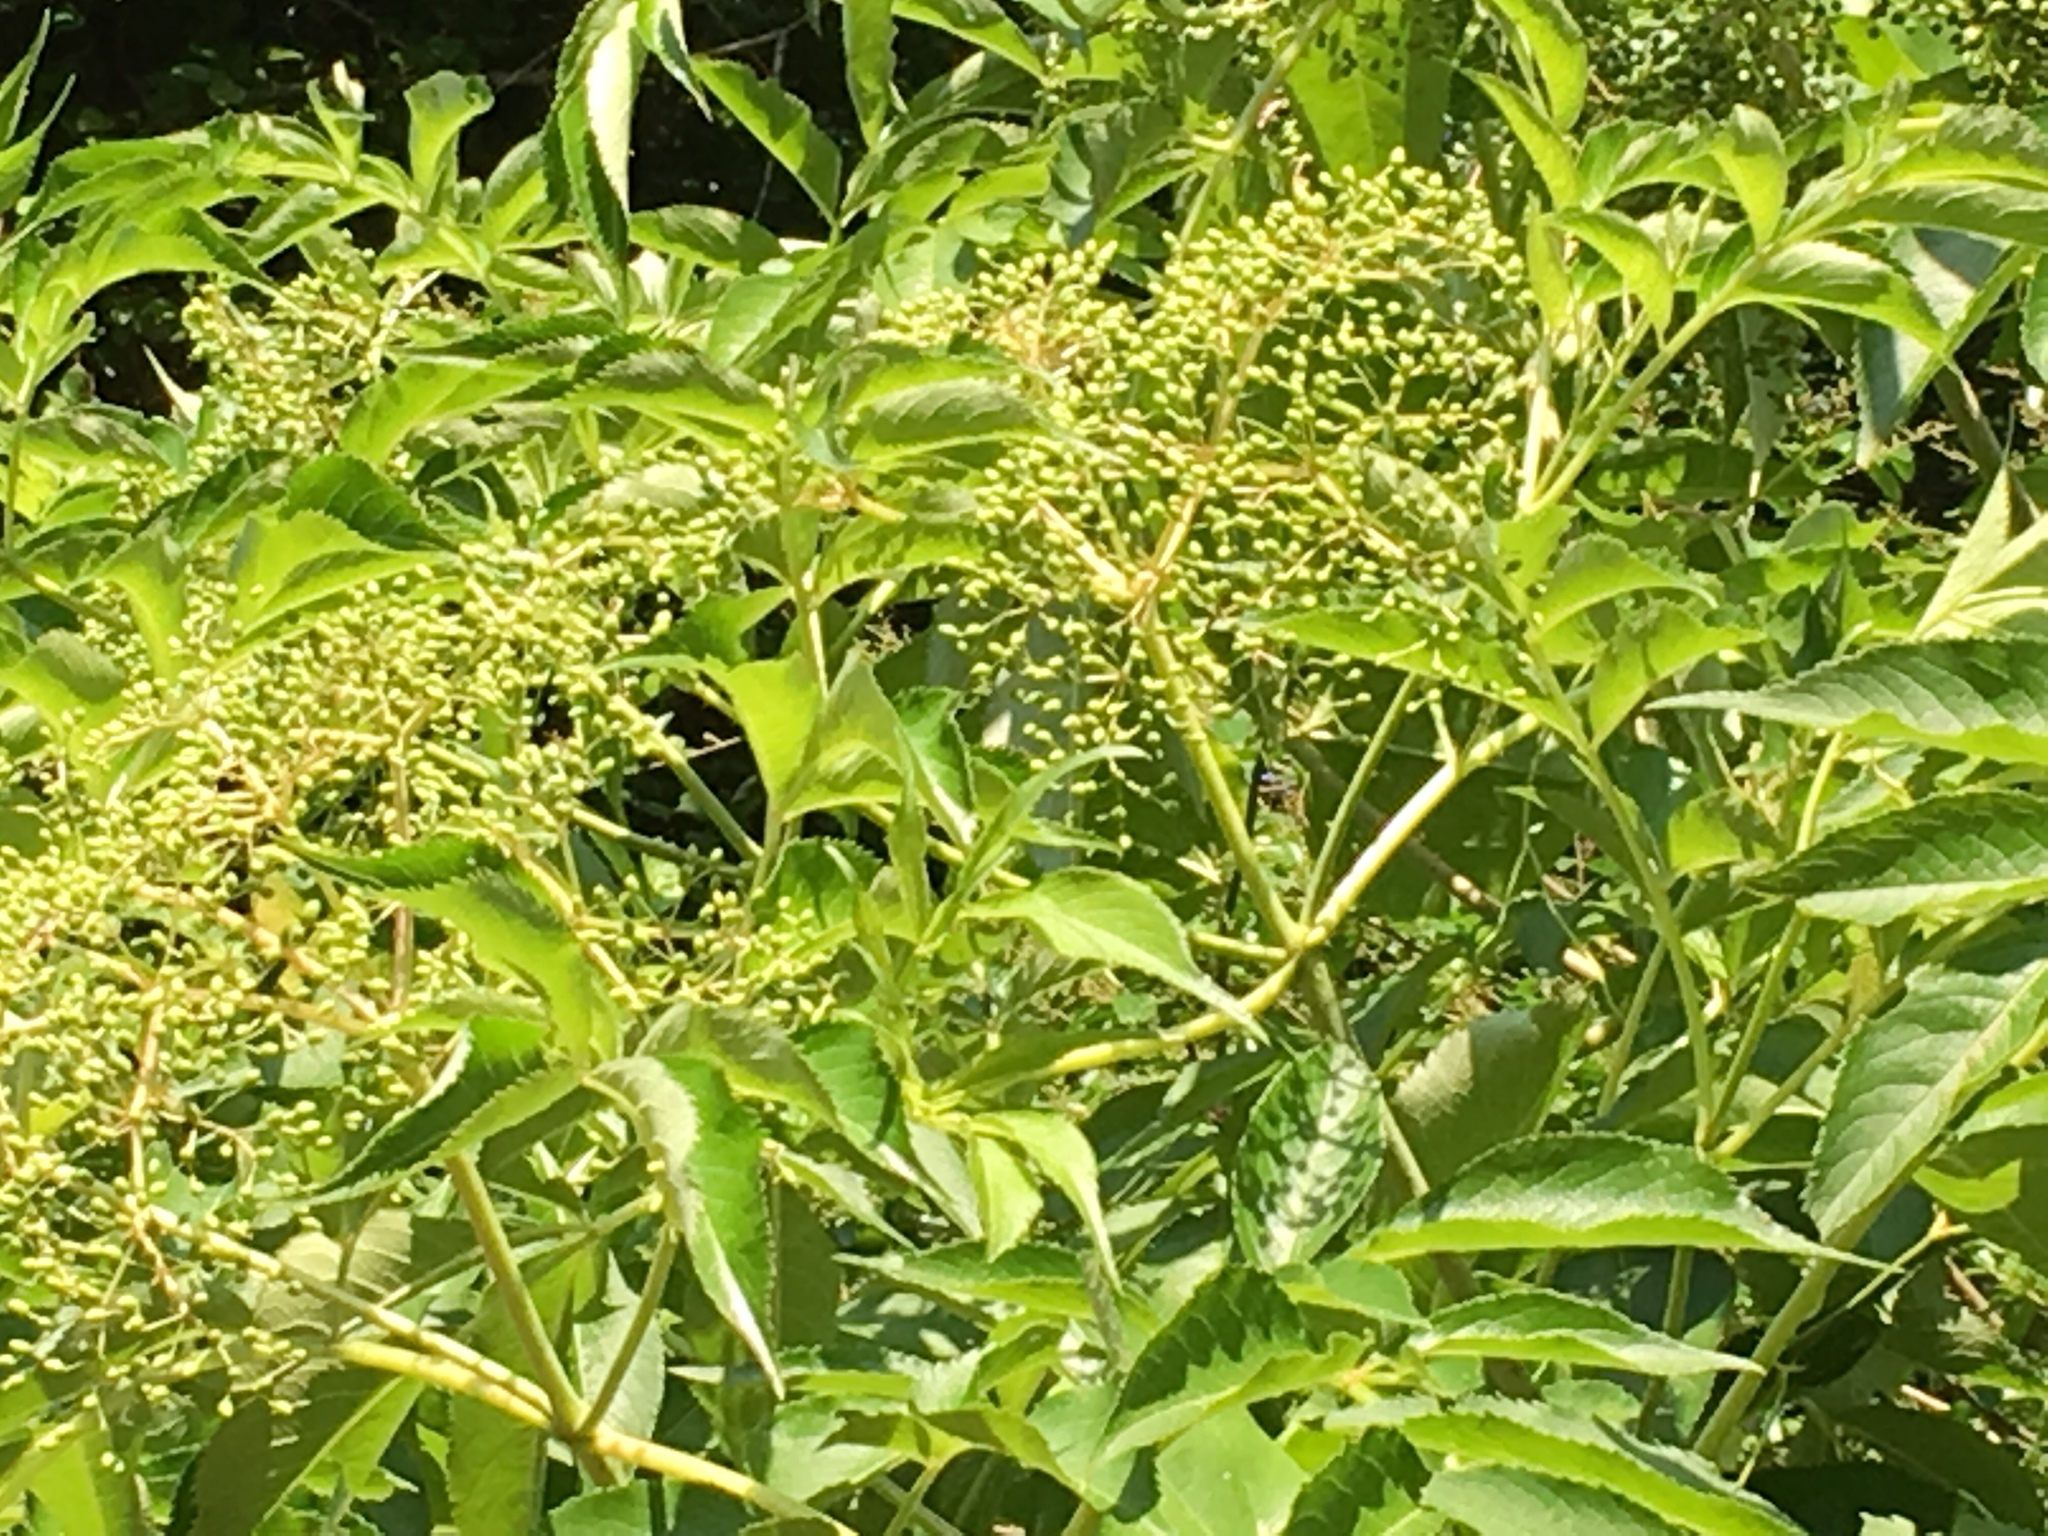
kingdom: Plantae
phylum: Tracheophyta
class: Magnoliopsida
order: Dipsacales
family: Viburnaceae
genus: Sambucus
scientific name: Sambucus canadensis
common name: American elder
